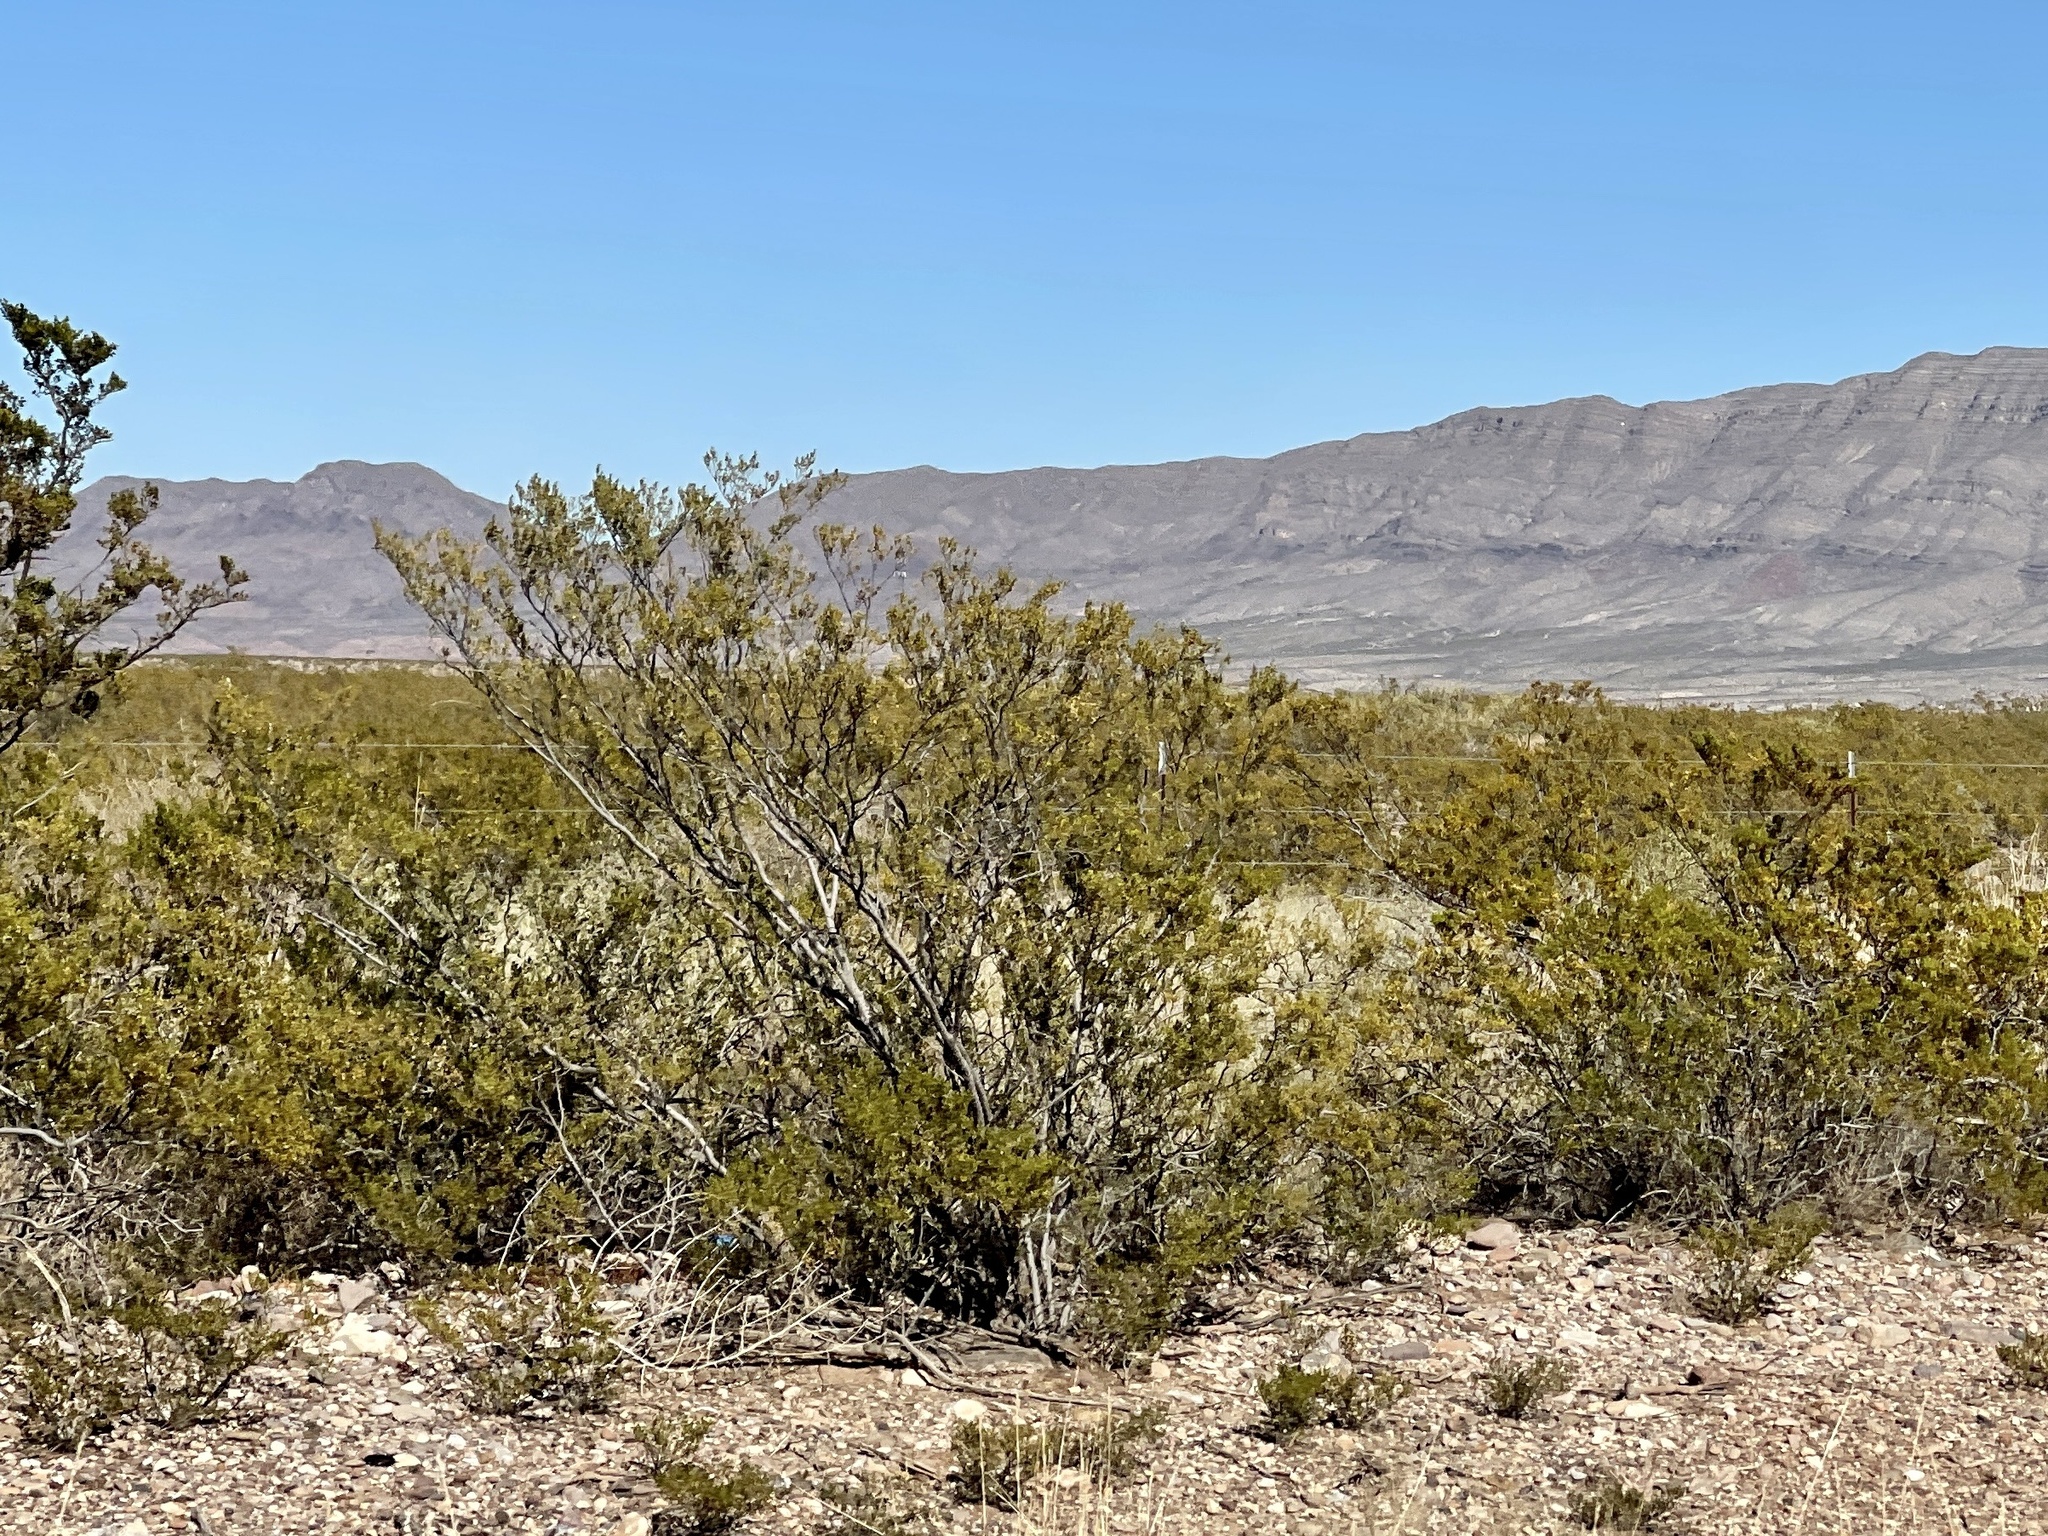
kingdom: Plantae
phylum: Tracheophyta
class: Magnoliopsida
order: Zygophyllales
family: Zygophyllaceae
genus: Larrea
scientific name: Larrea tridentata
